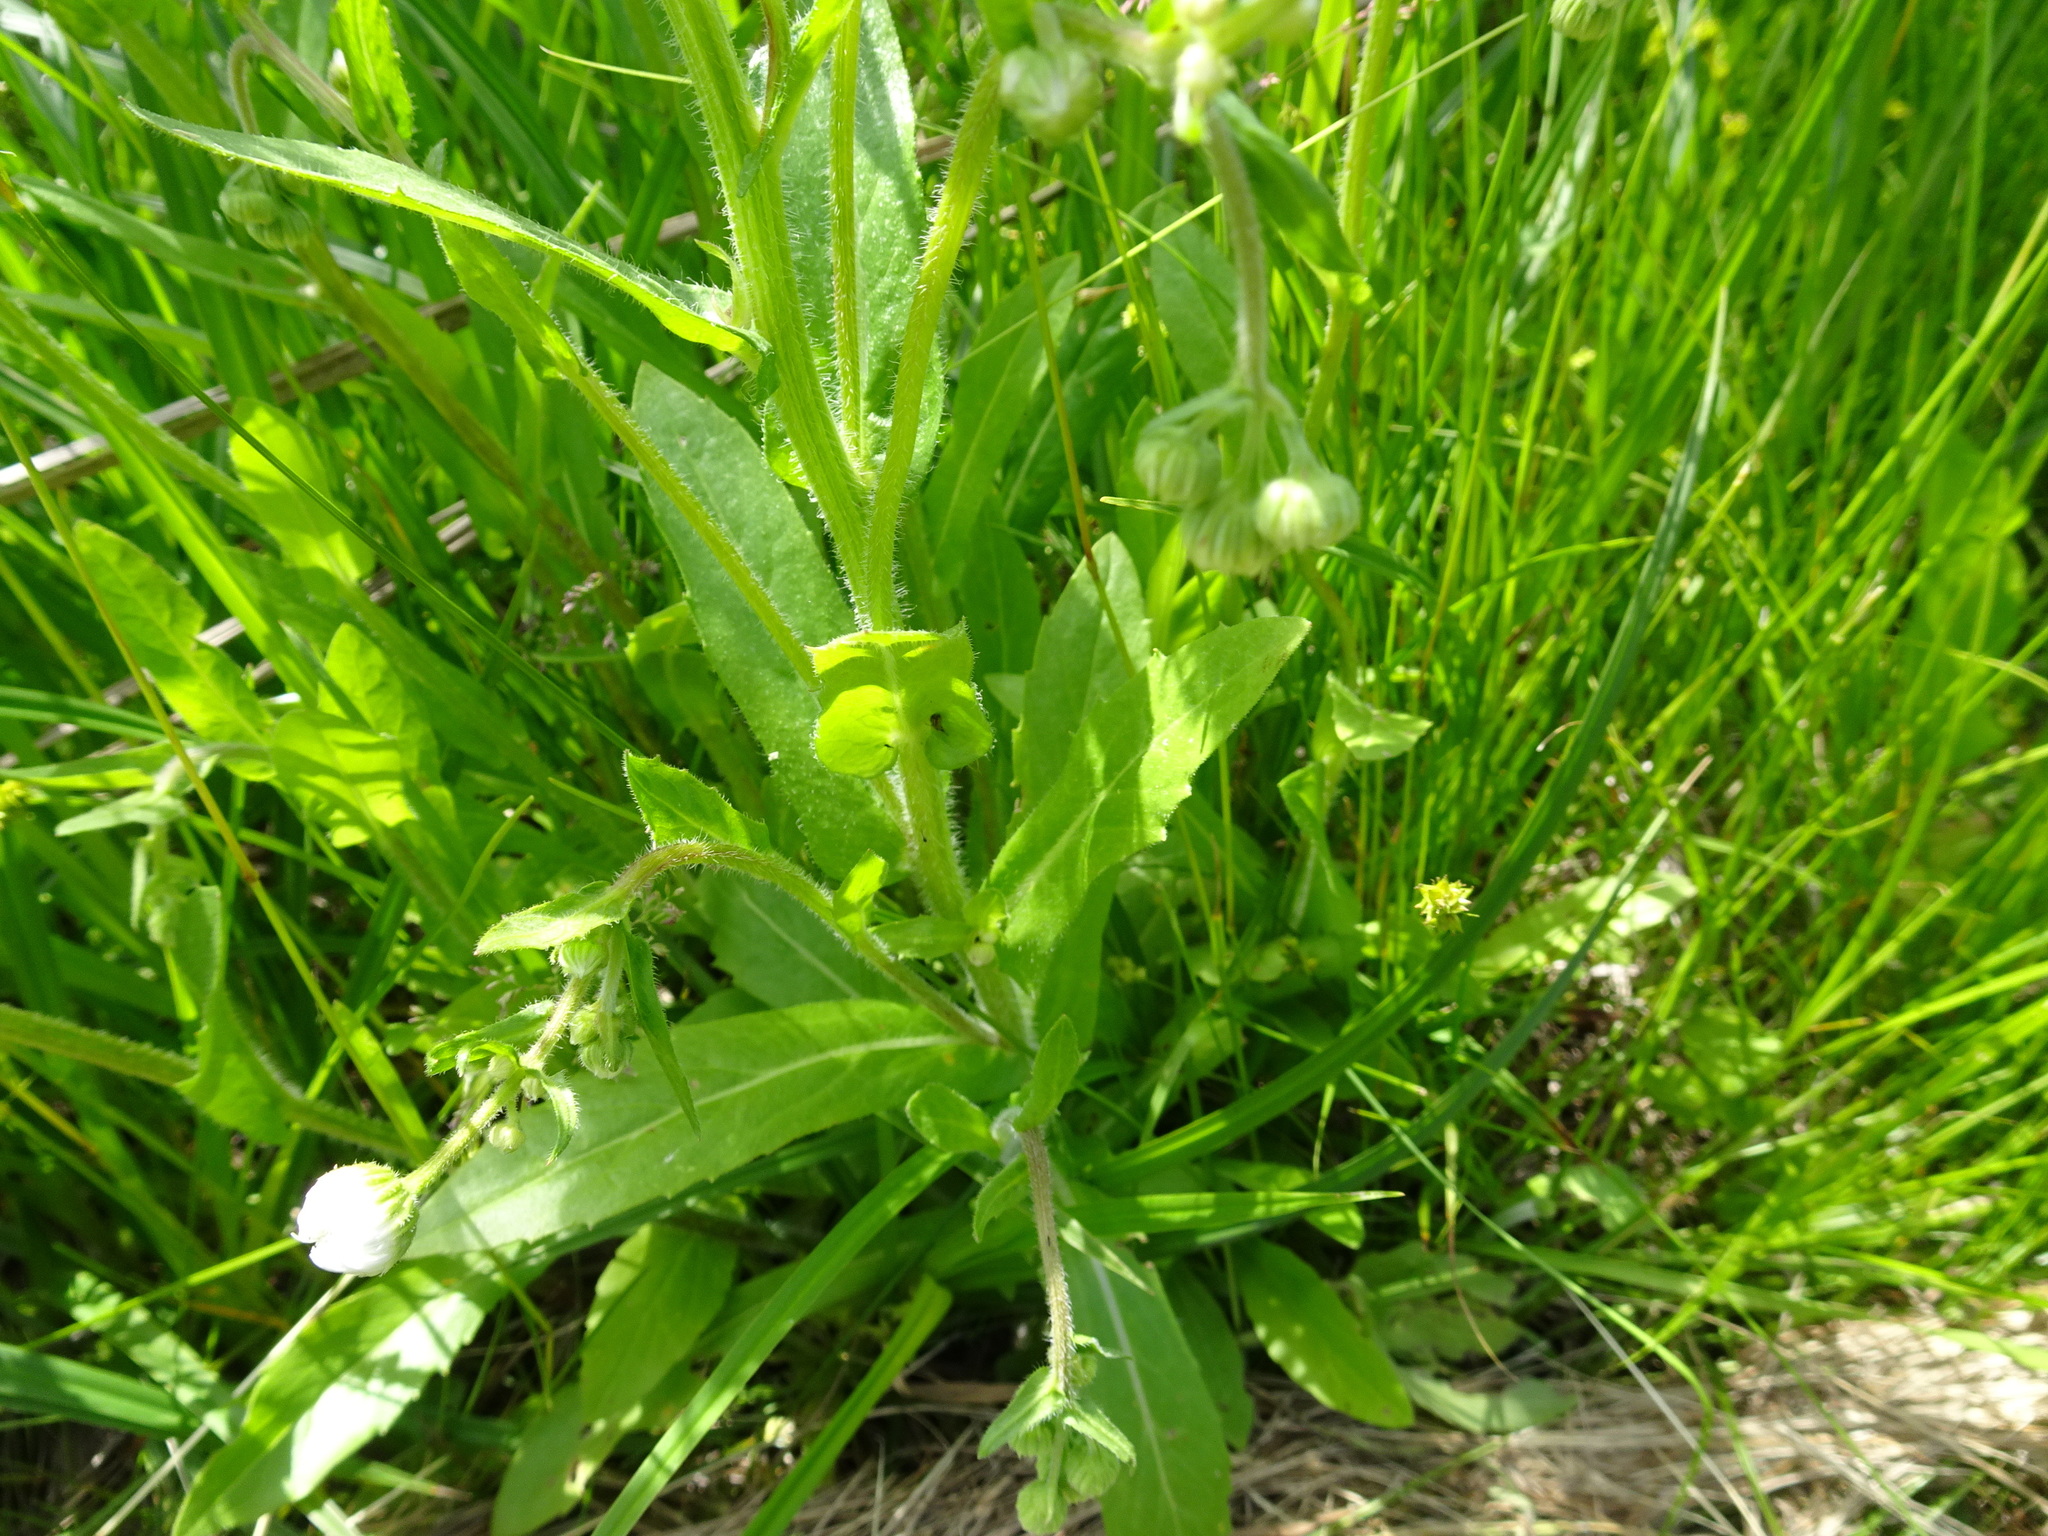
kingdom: Plantae
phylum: Tracheophyta
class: Magnoliopsida
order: Asterales
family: Asteraceae
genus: Erigeron
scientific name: Erigeron philadelphicus
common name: Robin's-plantain
